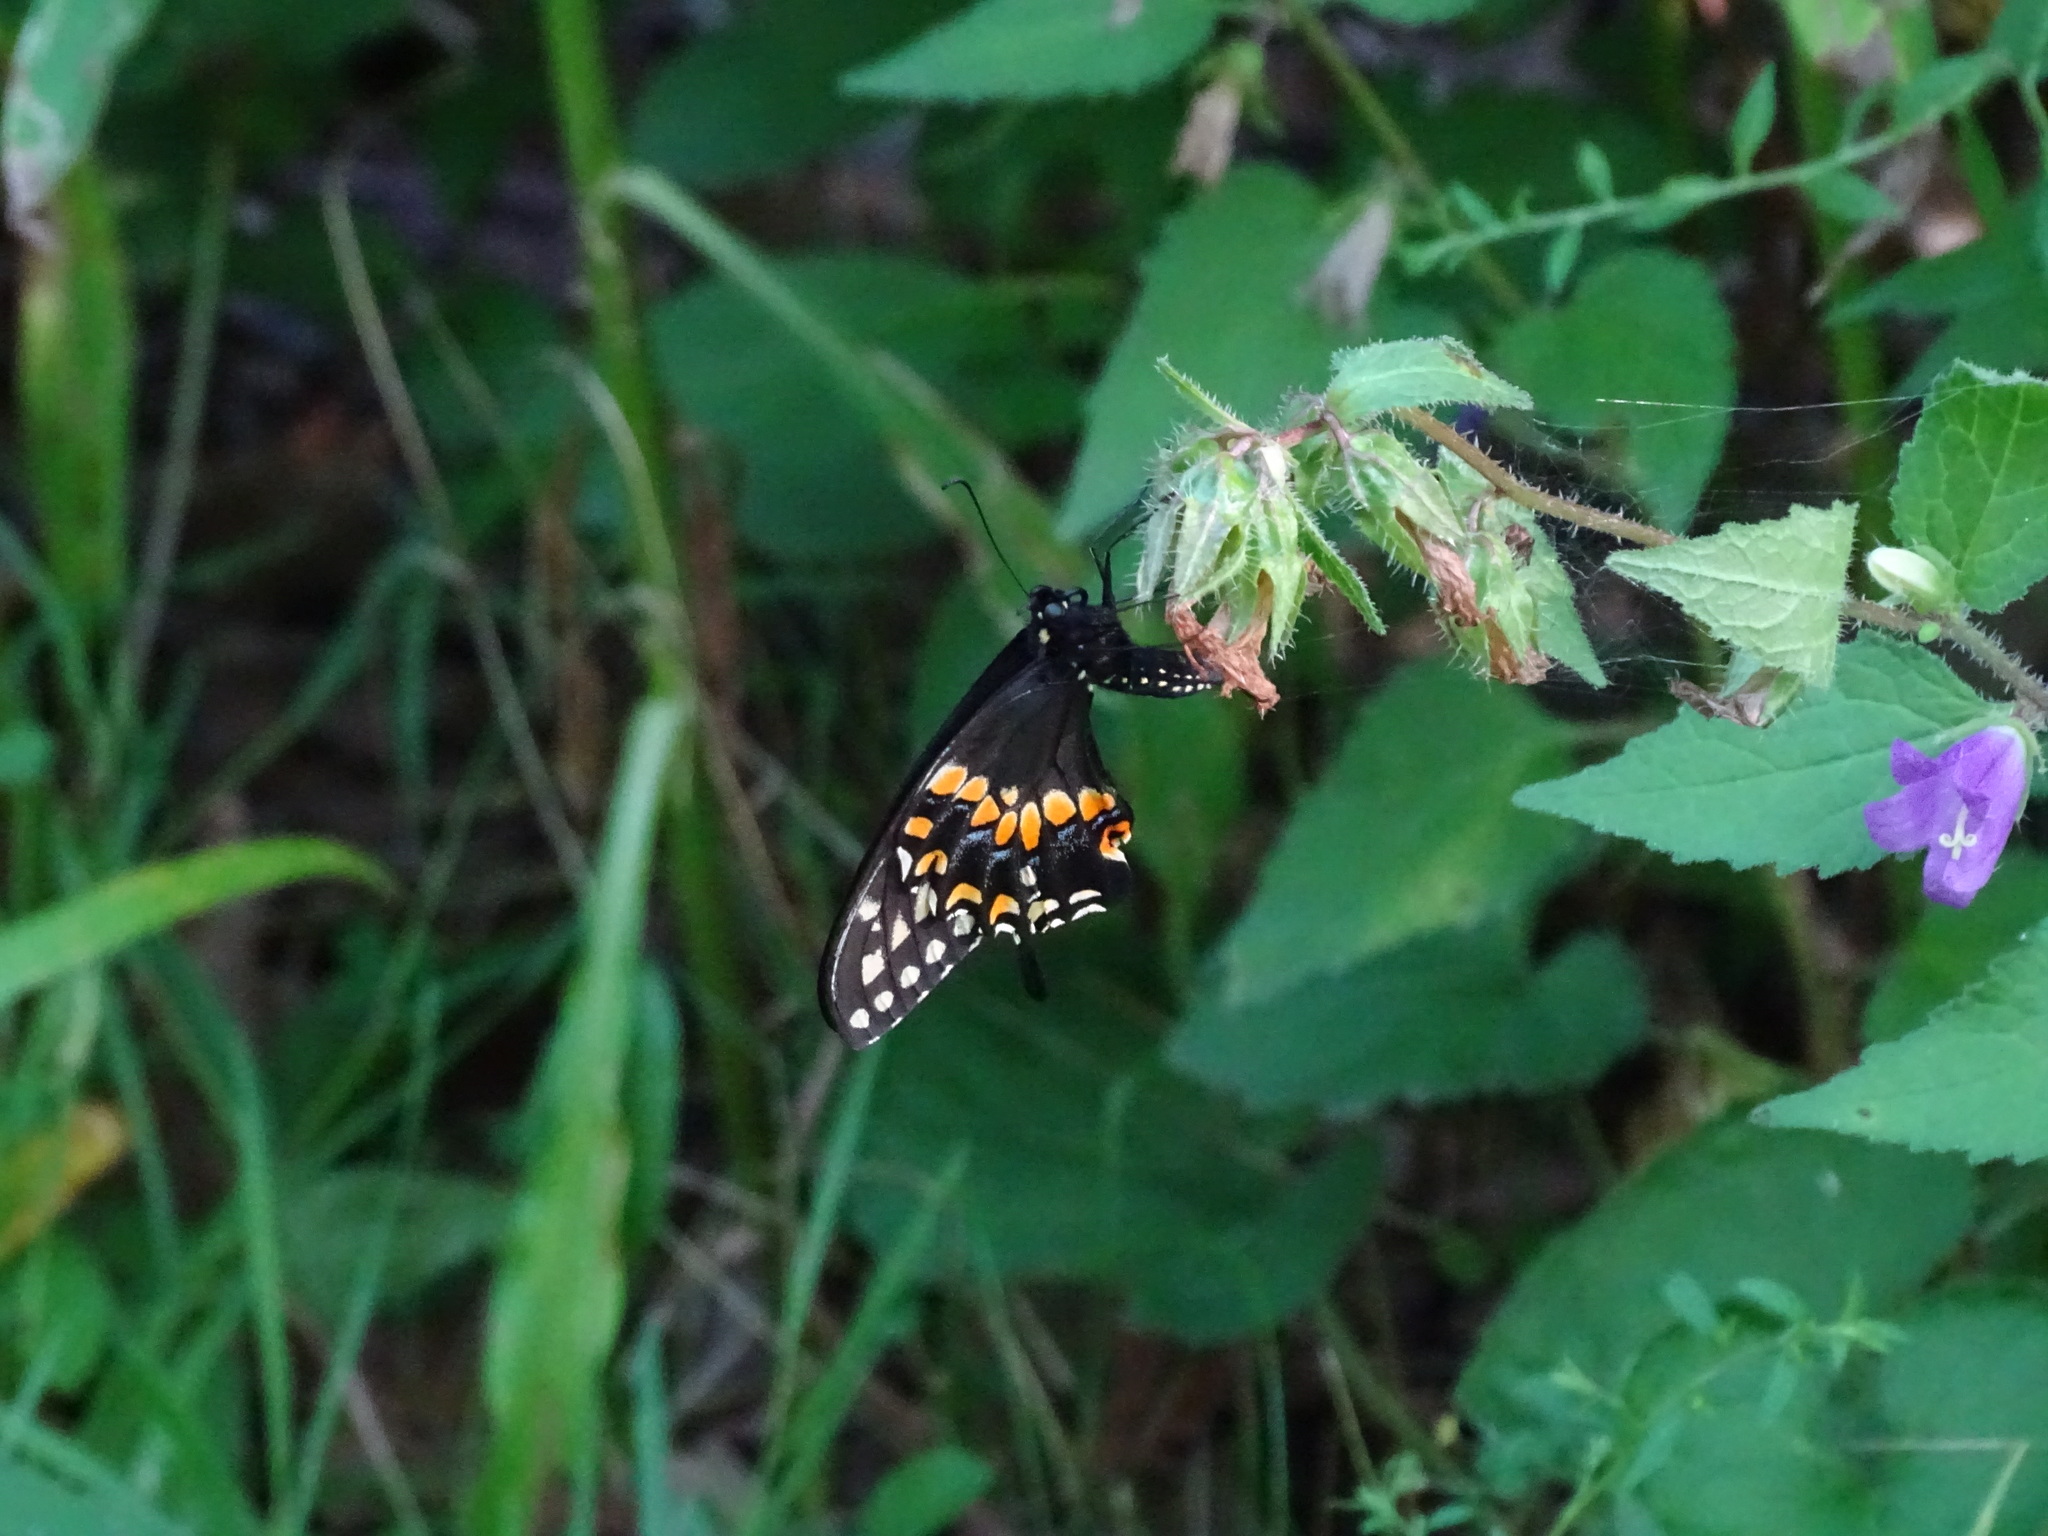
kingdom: Animalia
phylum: Arthropoda
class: Insecta
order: Lepidoptera
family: Papilionidae
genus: Papilio
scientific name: Papilio polyxenes
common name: Black swallowtail
